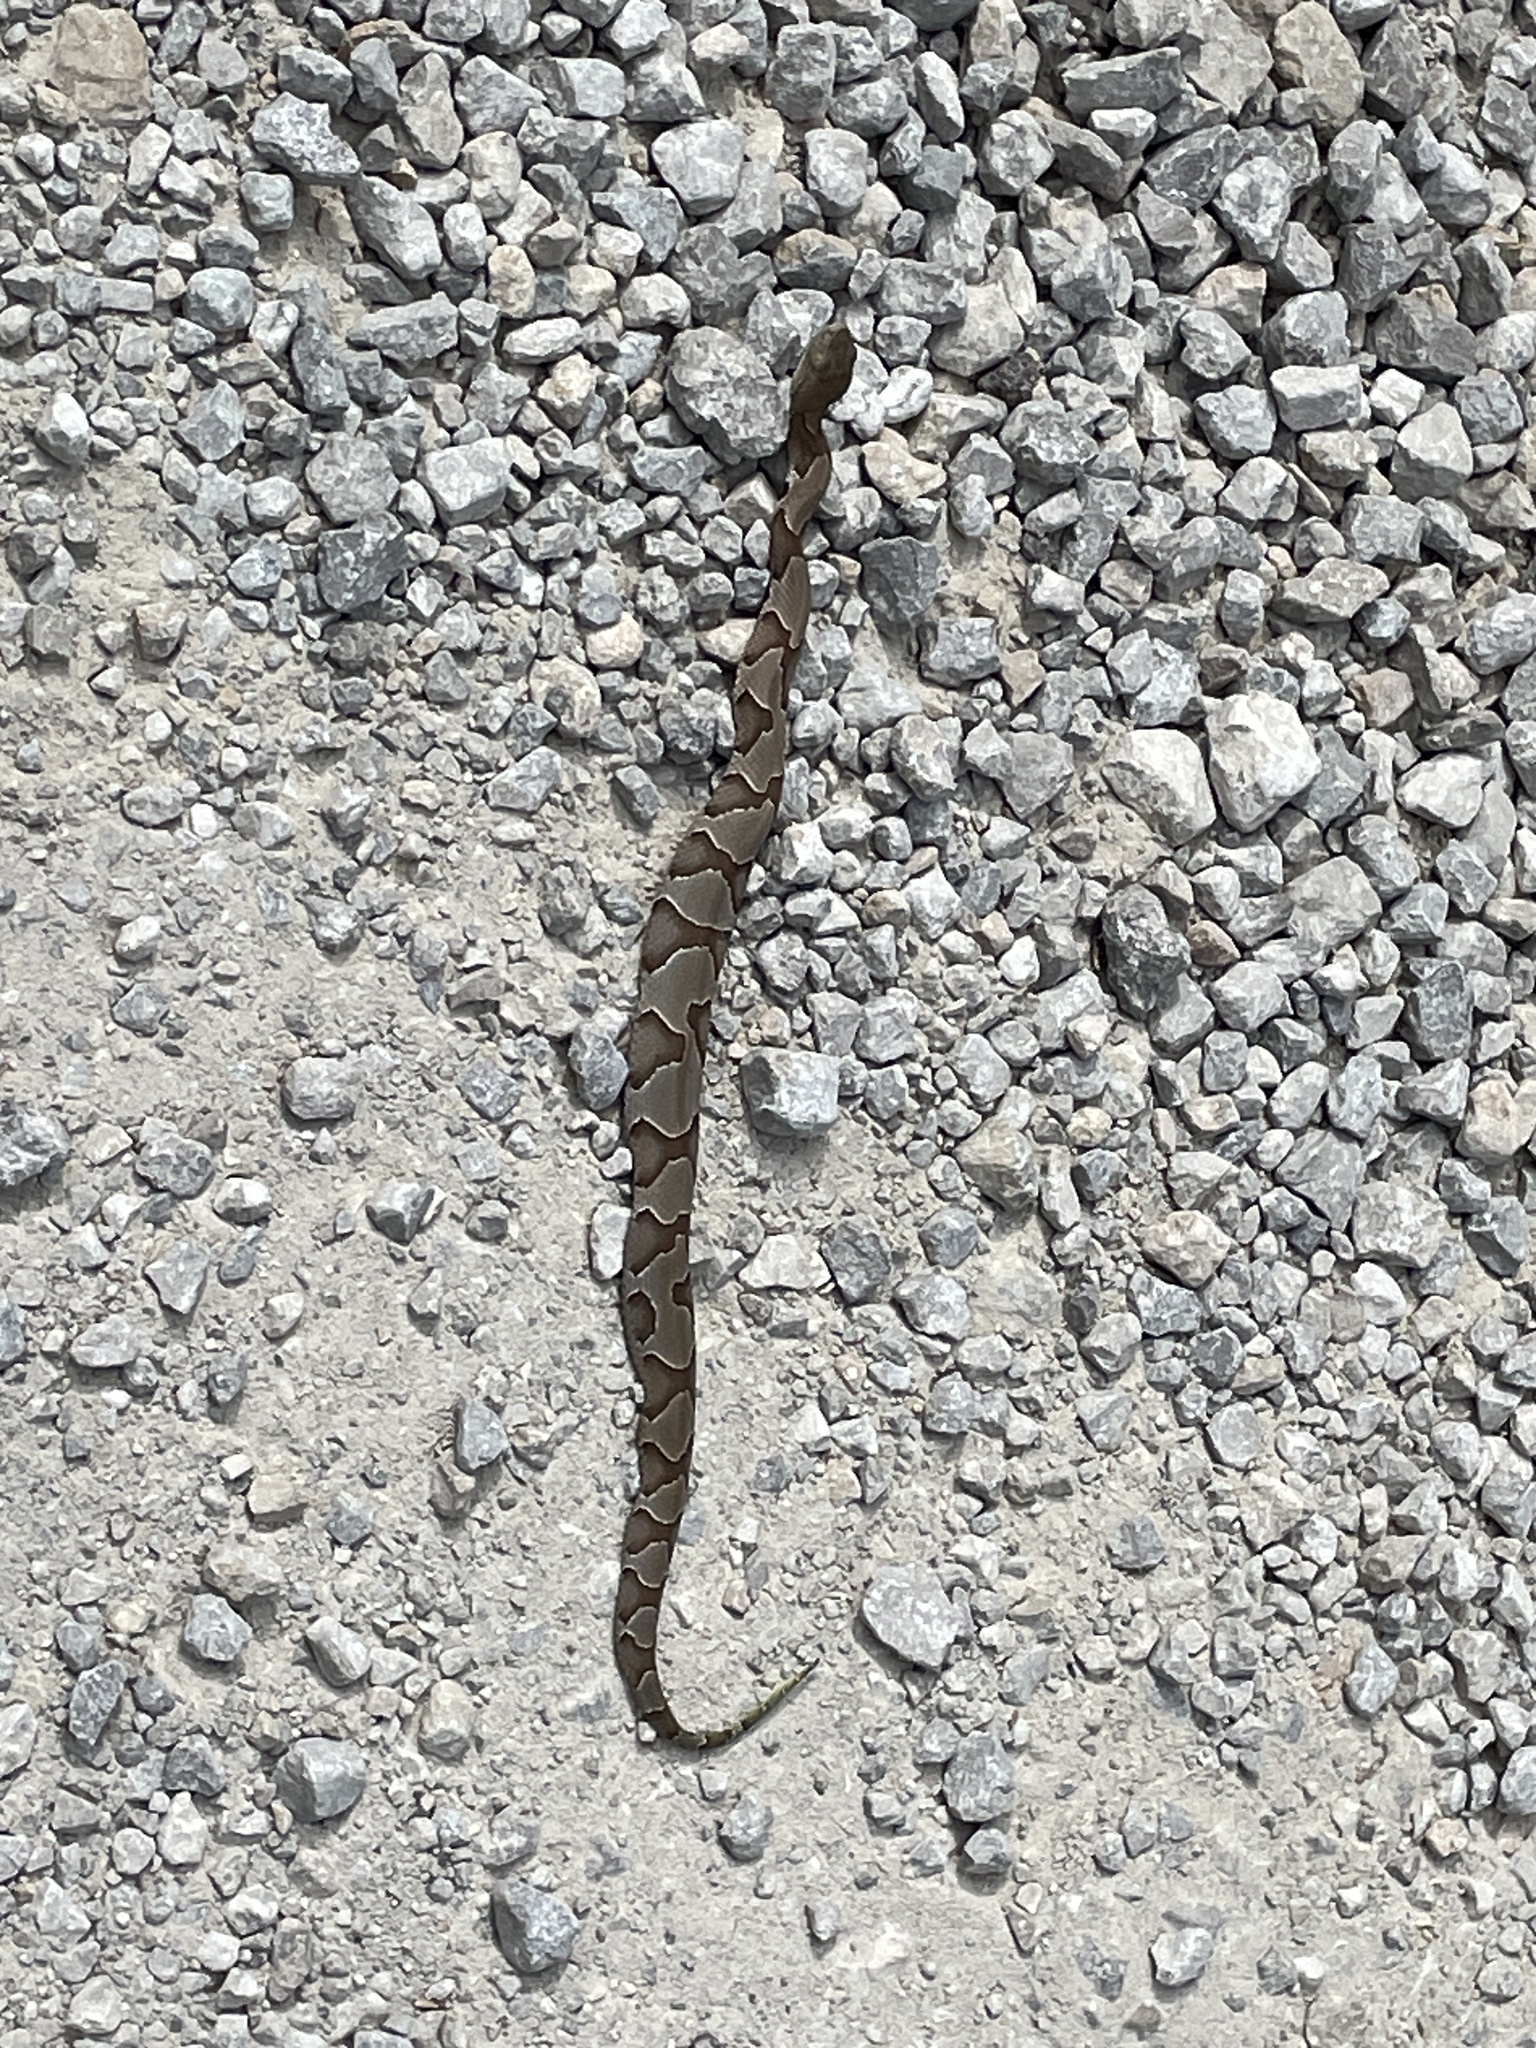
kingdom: Animalia
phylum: Chordata
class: Squamata
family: Viperidae
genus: Agkistrodon
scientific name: Agkistrodon contortrix
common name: Northern copperhead
